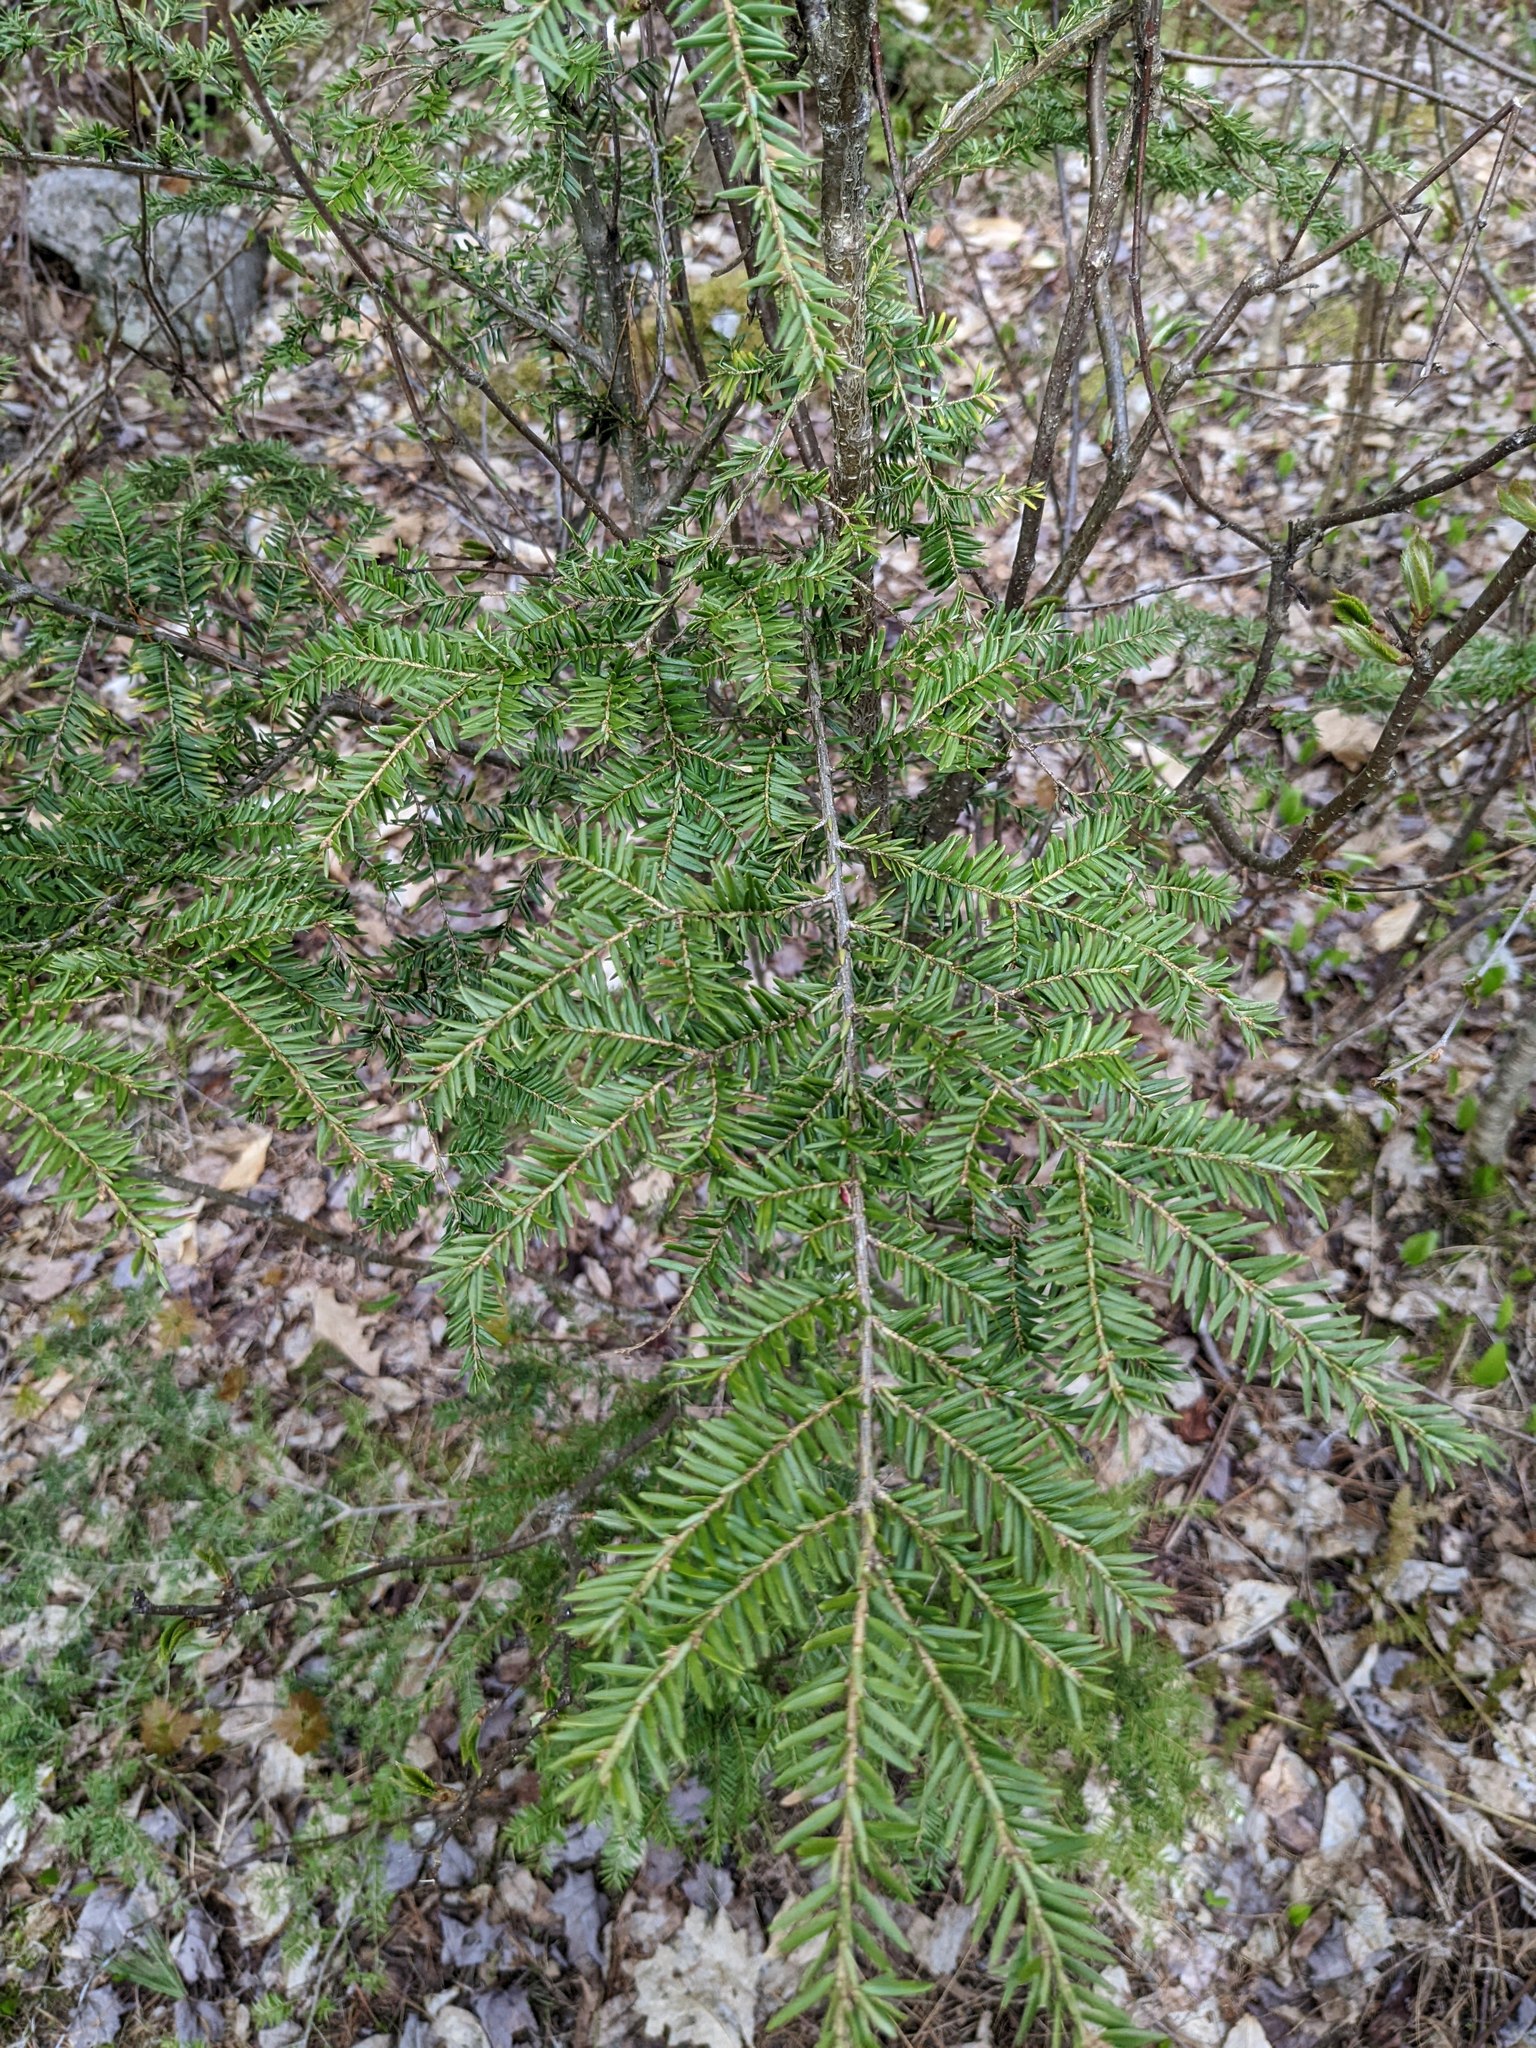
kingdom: Plantae
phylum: Tracheophyta
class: Pinopsida
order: Pinales
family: Pinaceae
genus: Tsuga
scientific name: Tsuga canadensis
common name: Eastern hemlock
